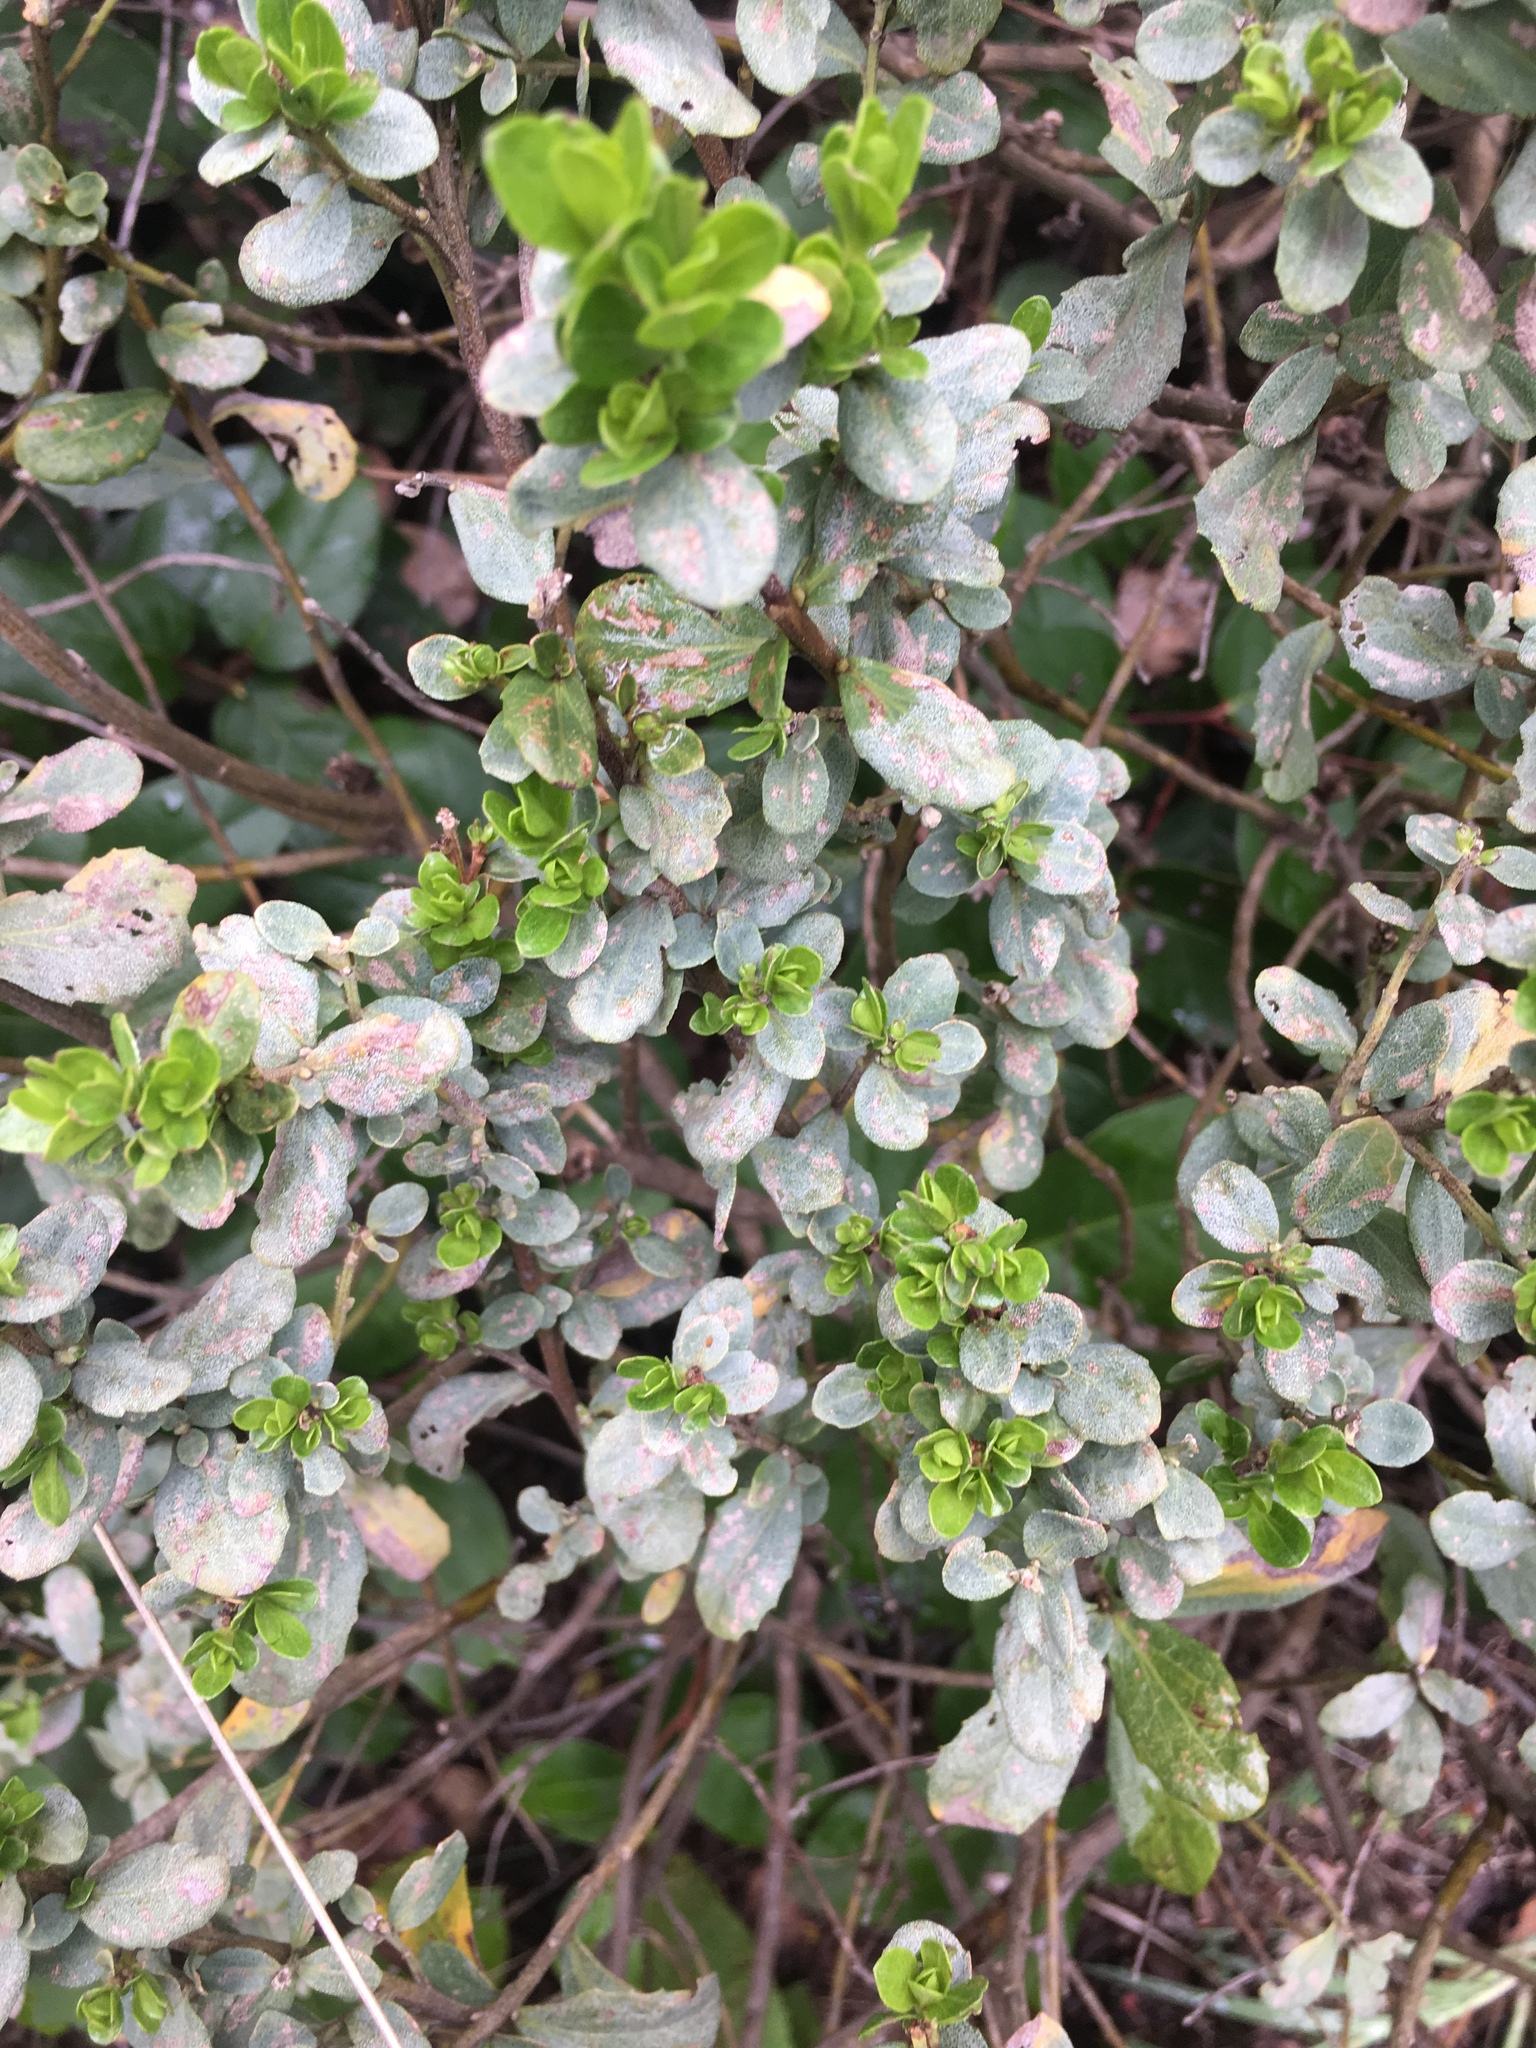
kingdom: Plantae
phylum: Tracheophyta
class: Magnoliopsida
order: Asterales
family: Asteraceae
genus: Baccharis
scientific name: Baccharis pilularis
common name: Coyotebrush
